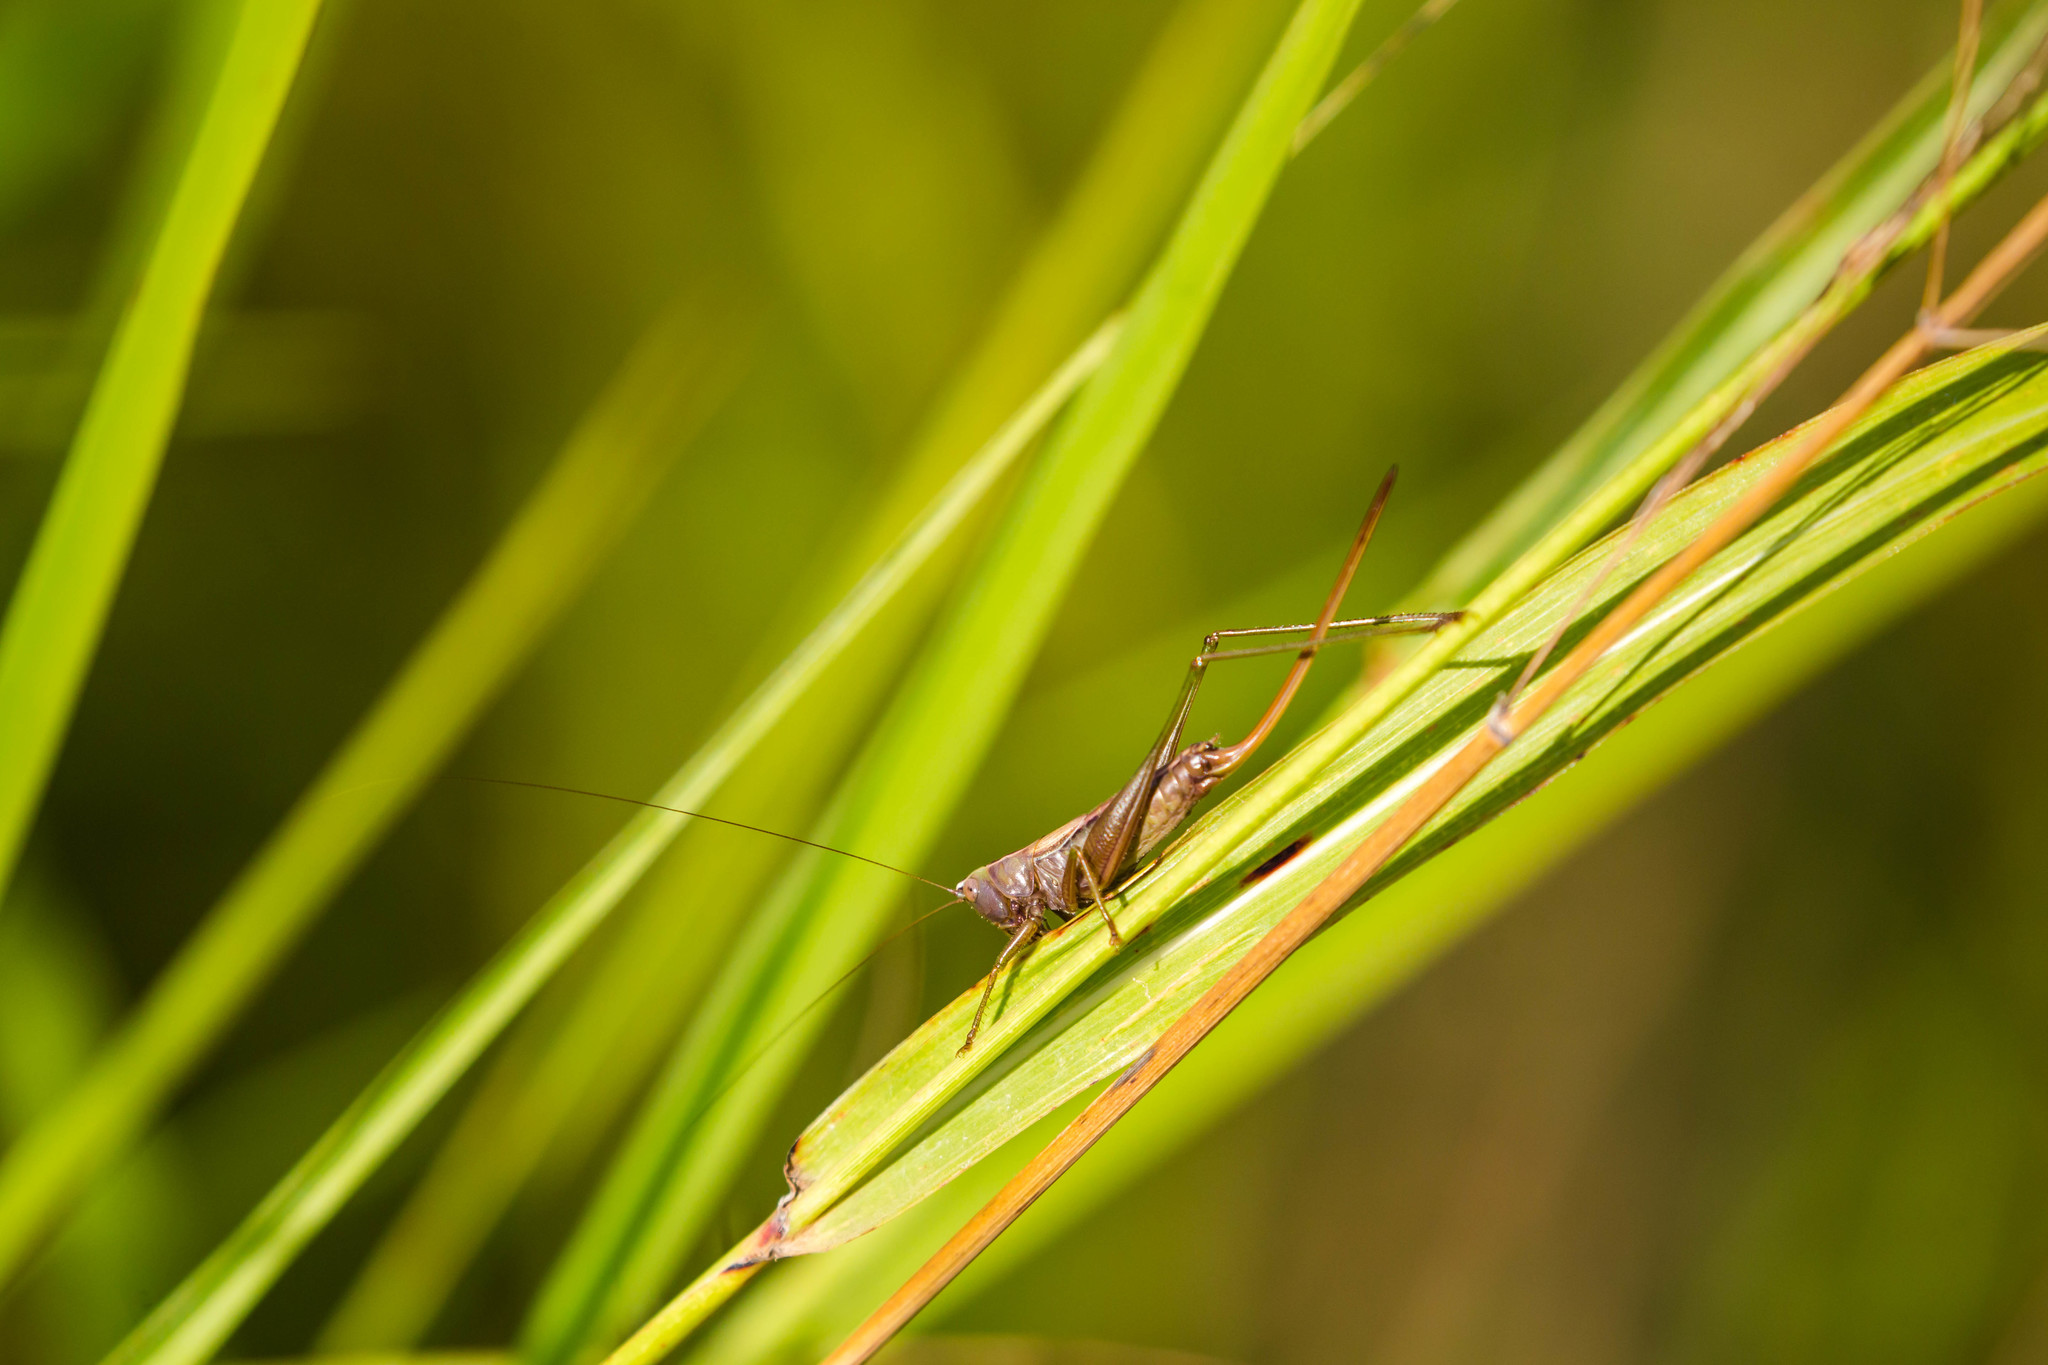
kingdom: Animalia
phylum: Arthropoda
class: Insecta
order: Orthoptera
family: Tettigoniidae
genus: Conocephalus
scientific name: Conocephalus strictus
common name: Straight-lanced katydid
